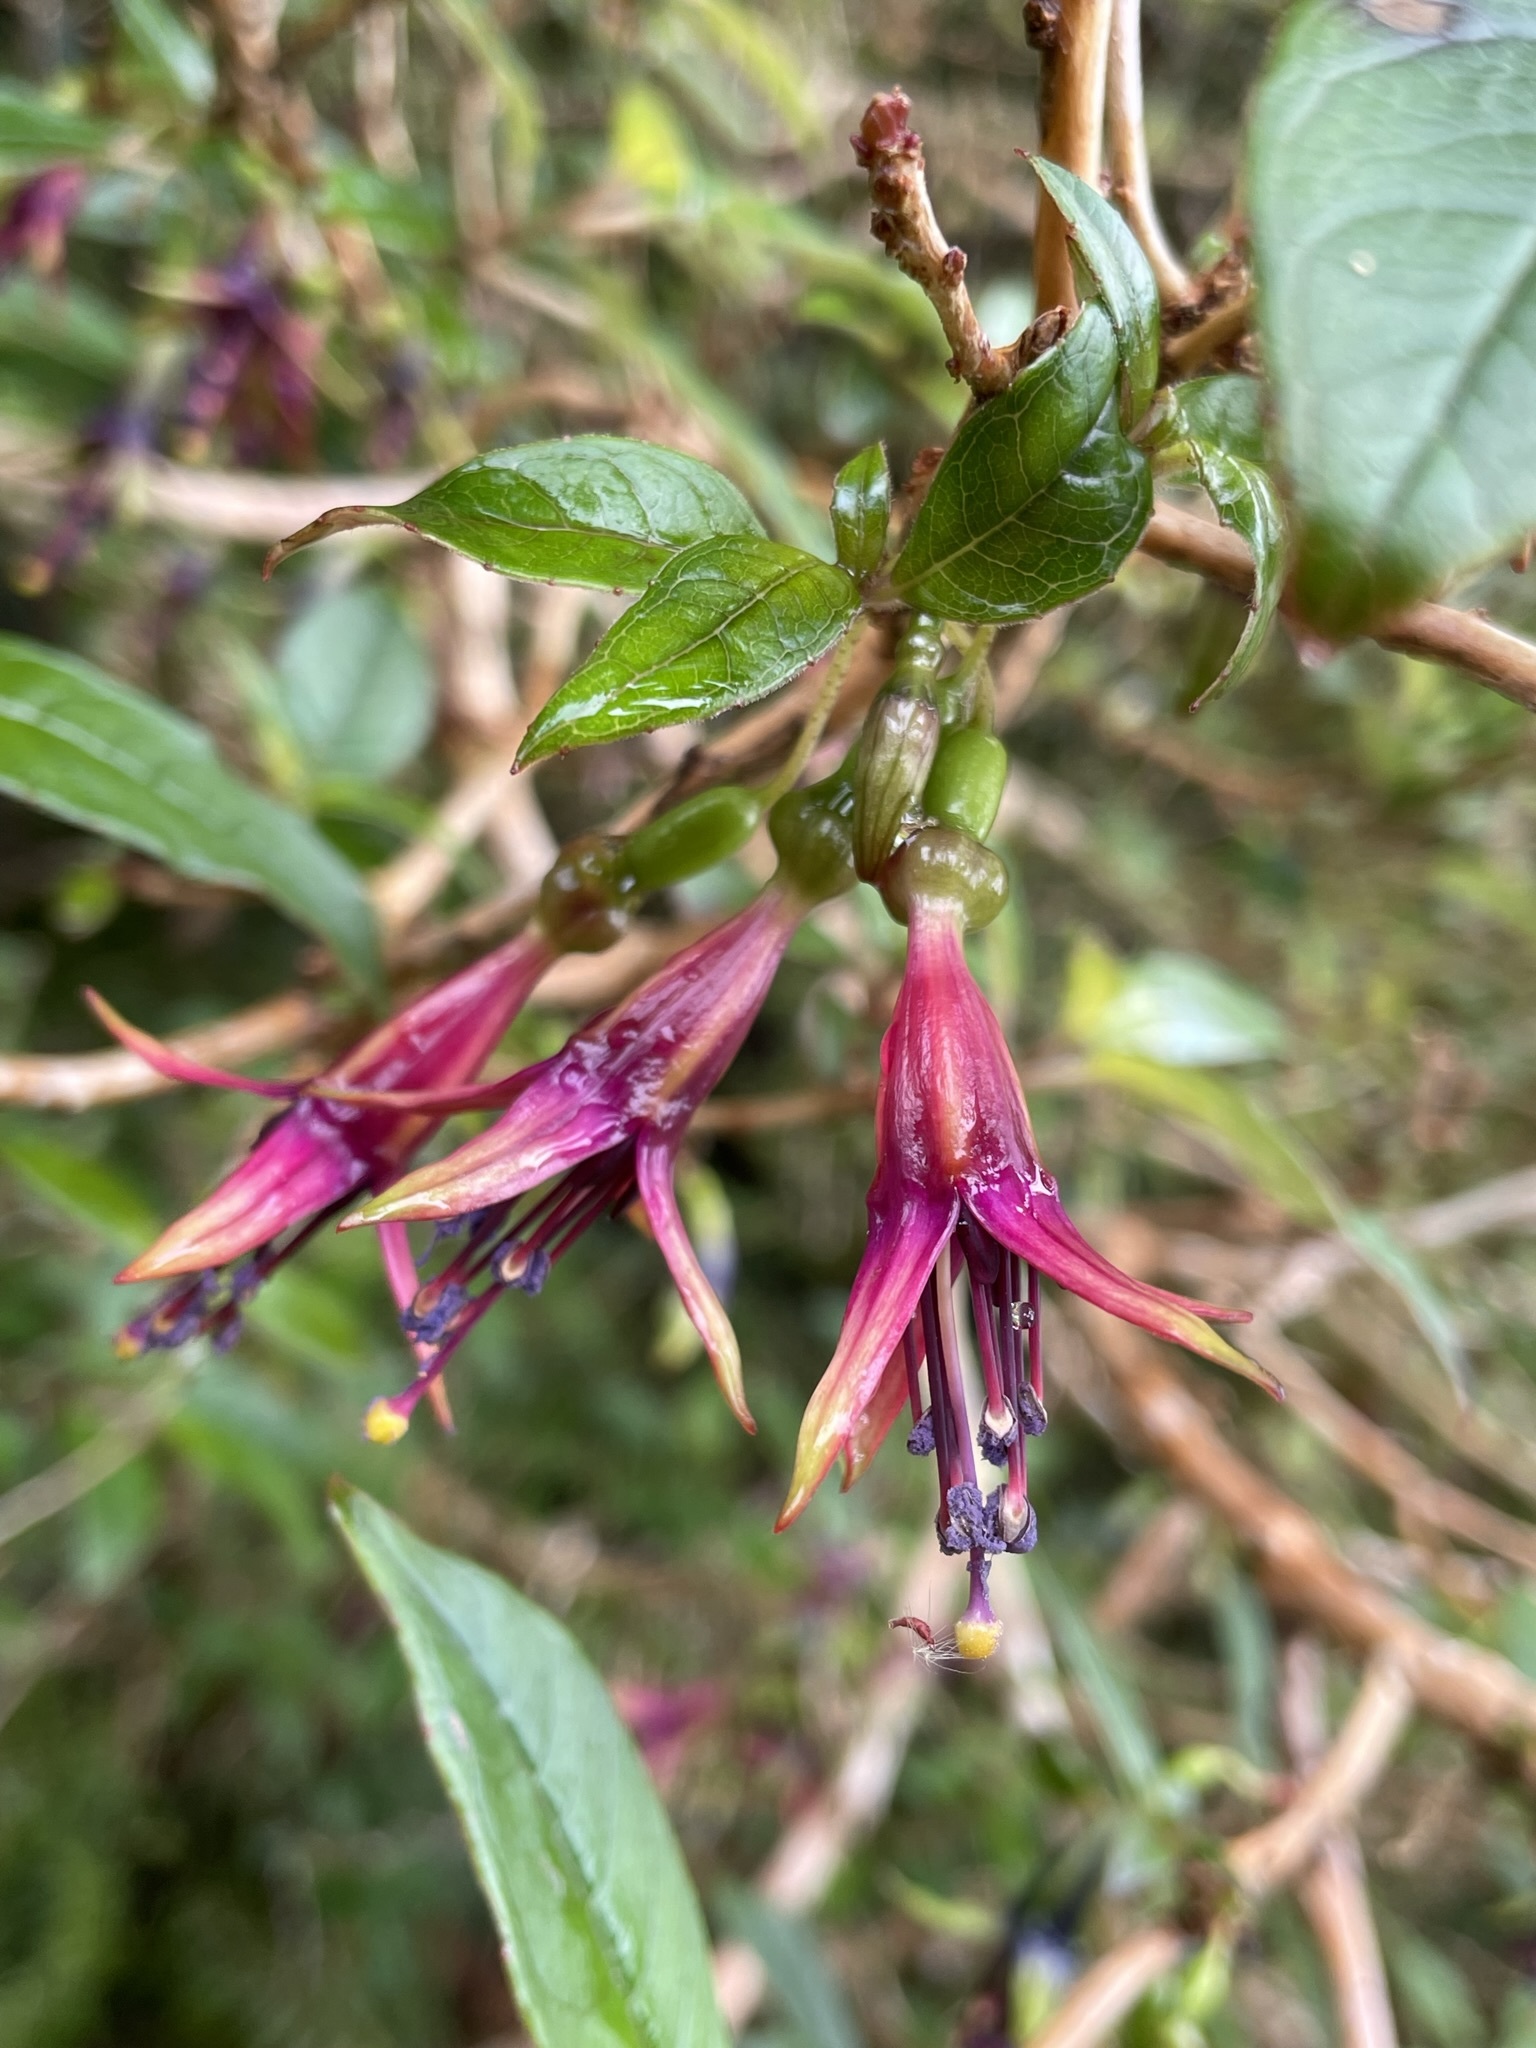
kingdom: Plantae
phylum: Tracheophyta
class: Magnoliopsida
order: Myrtales
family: Onagraceae
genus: Fuchsia
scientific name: Fuchsia excorticata
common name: Tree fuchsia
